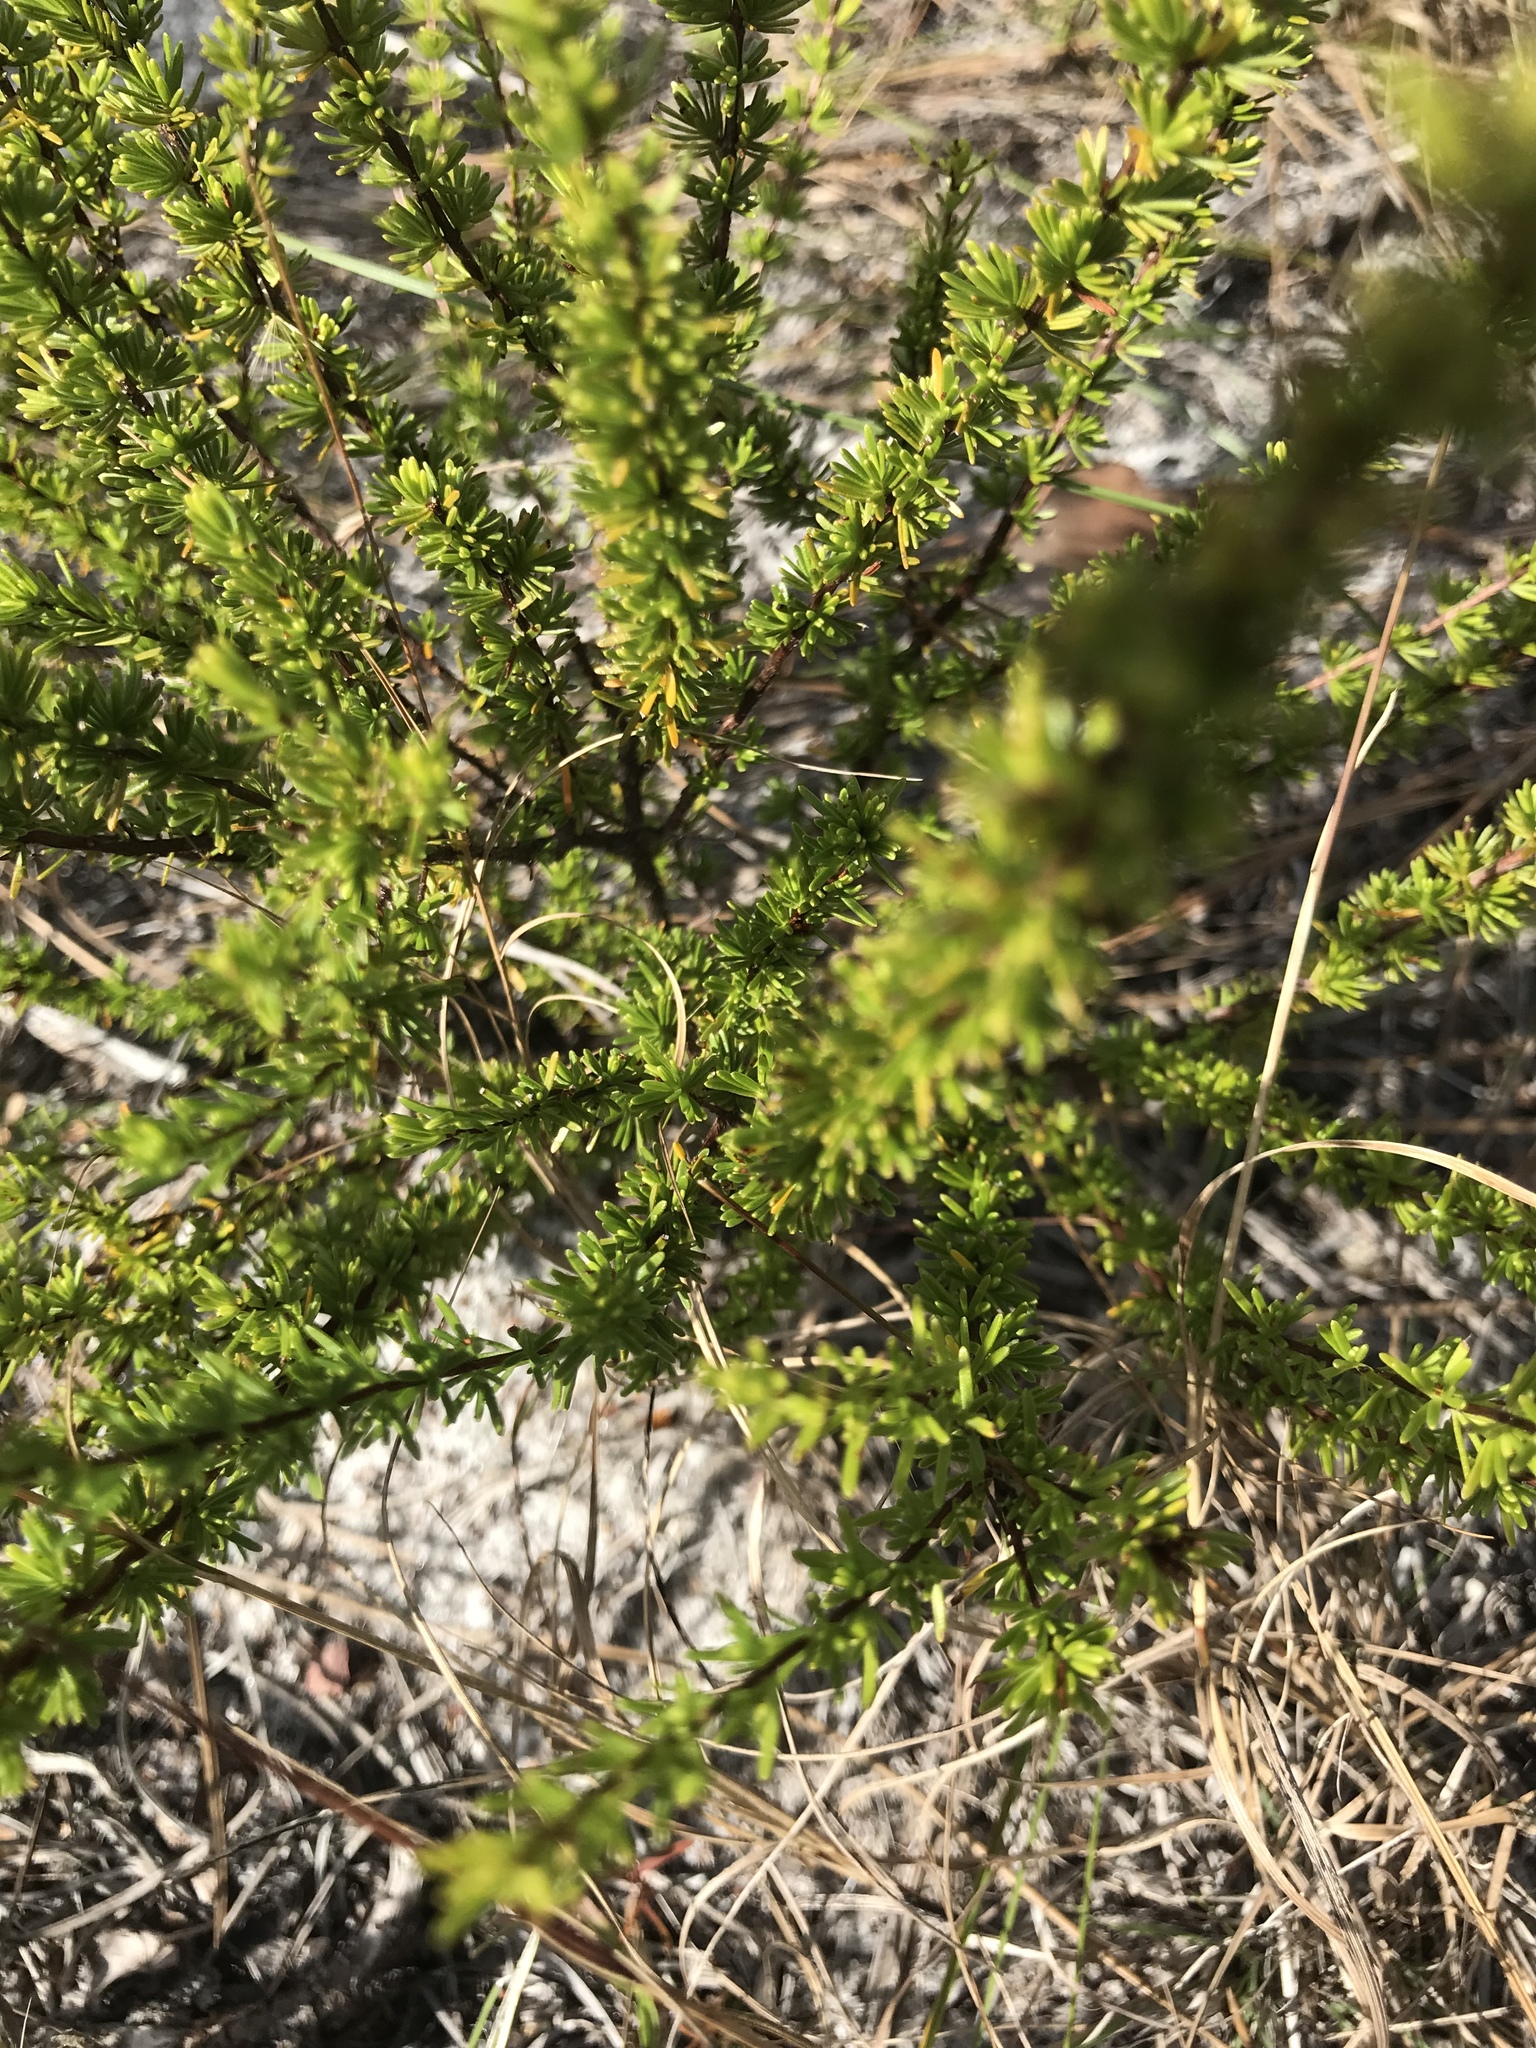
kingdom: Plantae
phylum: Tracheophyta
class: Magnoliopsida
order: Malpighiales
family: Hypericaceae
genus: Hypericum
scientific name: Hypericum tenuifolium
